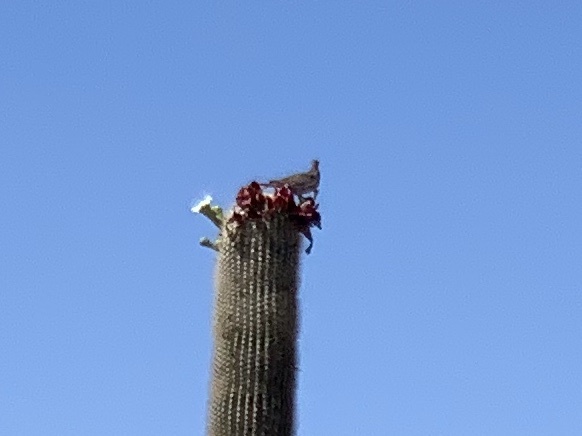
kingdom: Animalia
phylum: Chordata
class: Aves
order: Columbiformes
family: Columbidae
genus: Zenaida
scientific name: Zenaida asiatica
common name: White-winged dove
